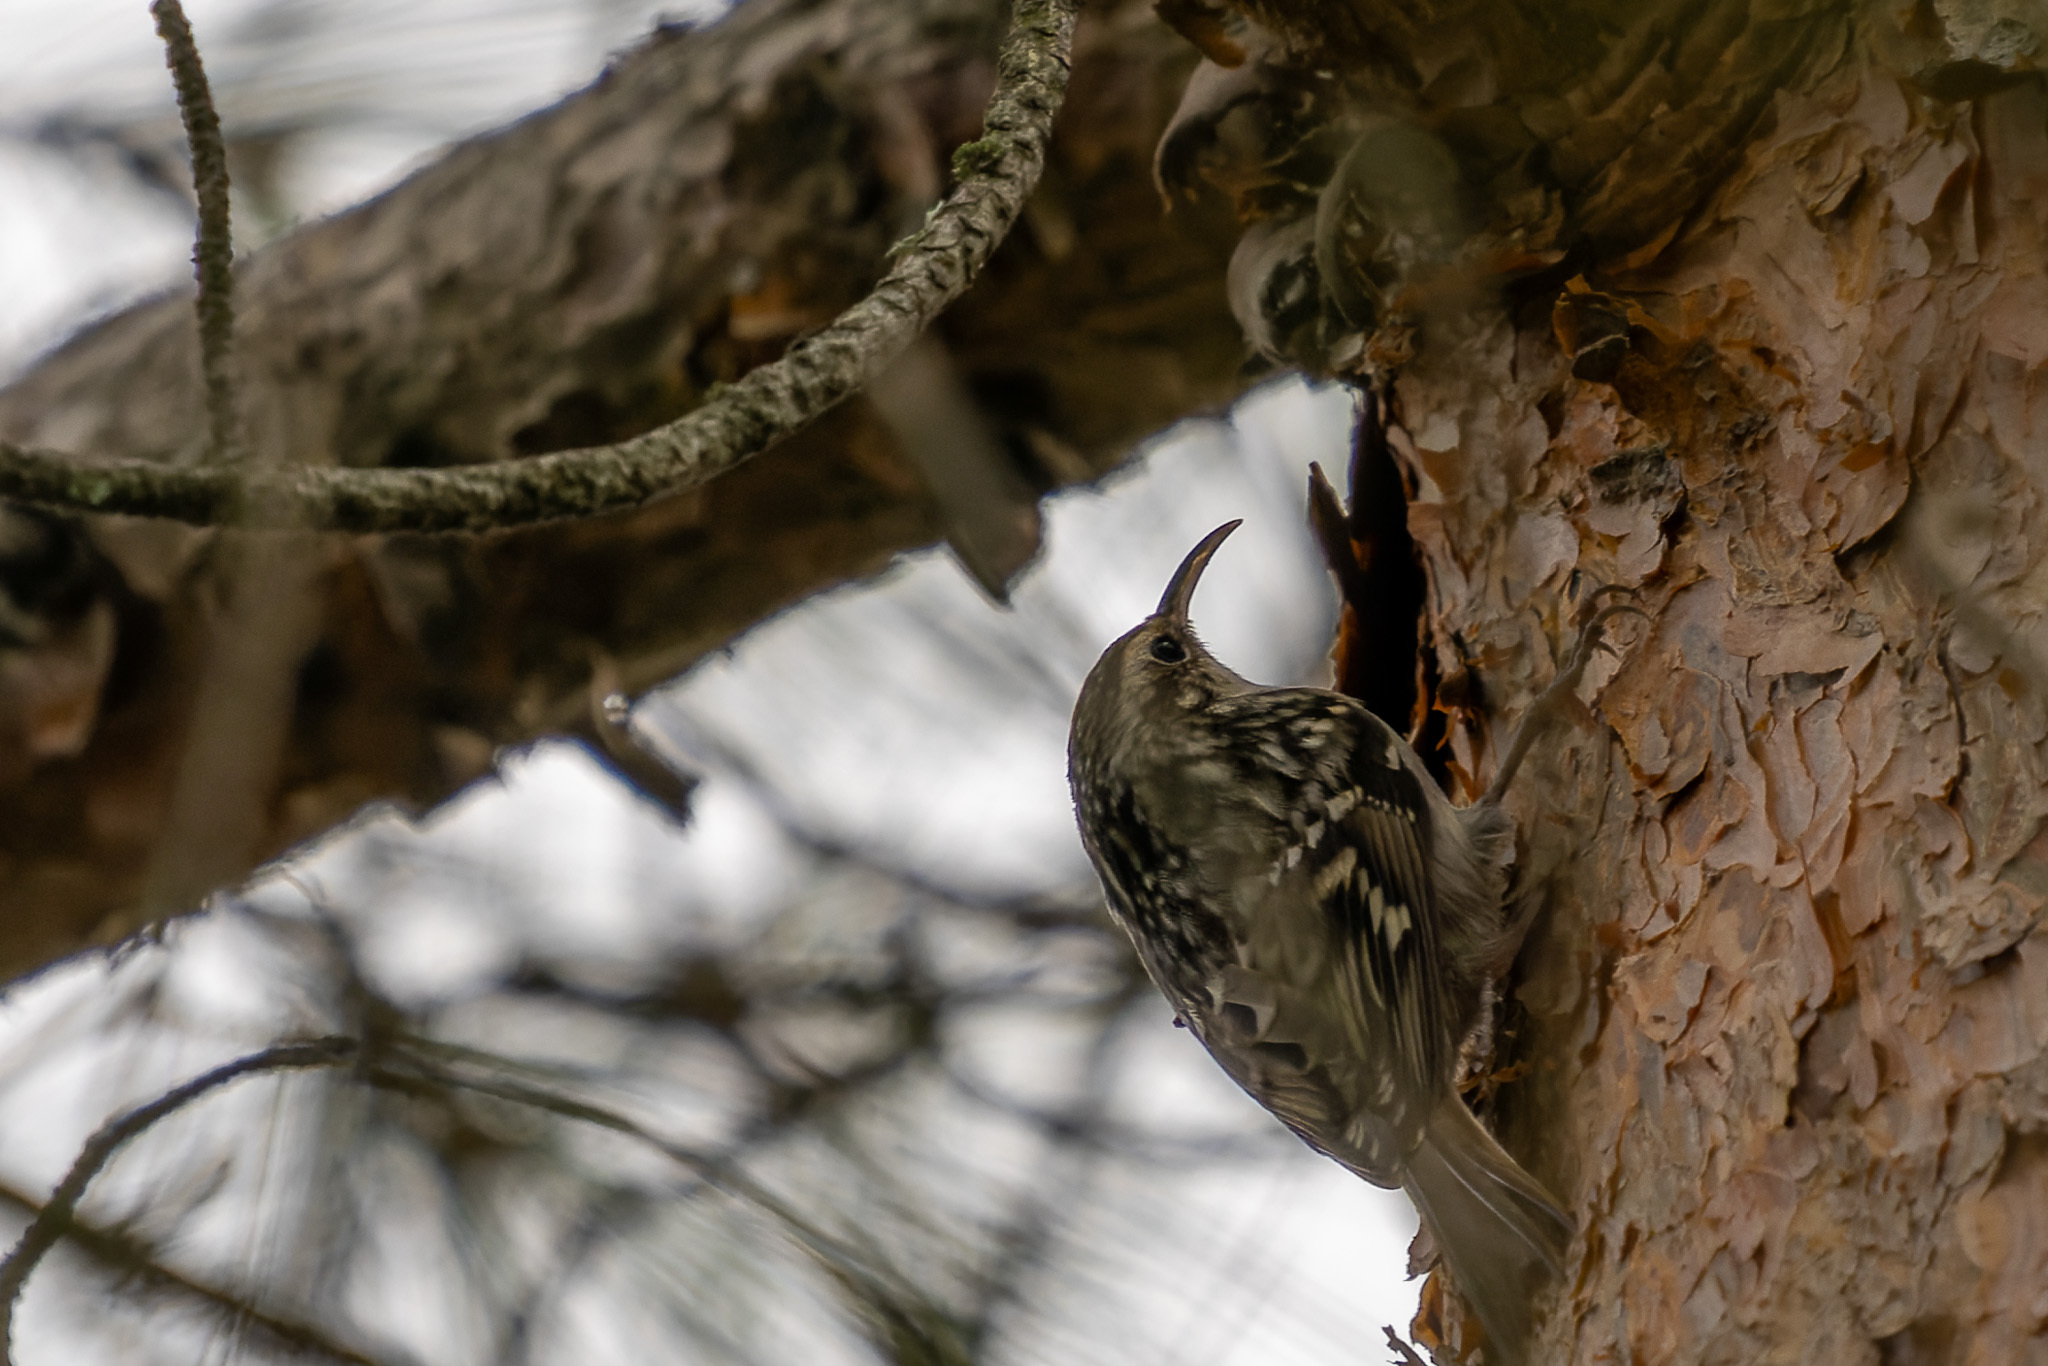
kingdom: Animalia
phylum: Chordata
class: Aves
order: Passeriformes
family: Certhiidae
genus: Certhia
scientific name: Certhia brachydactyla
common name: Short-toed treecreeper
